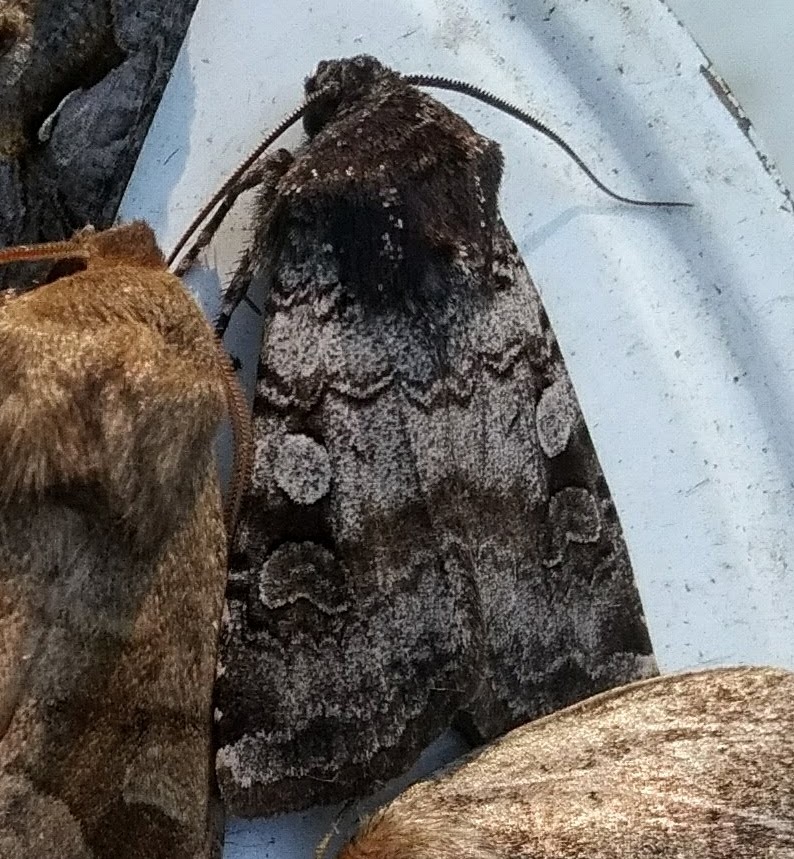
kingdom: Animalia
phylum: Arthropoda
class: Insecta
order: Lepidoptera
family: Noctuidae
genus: Euxoa
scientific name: Euxoa albipennis
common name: White-striped dart
